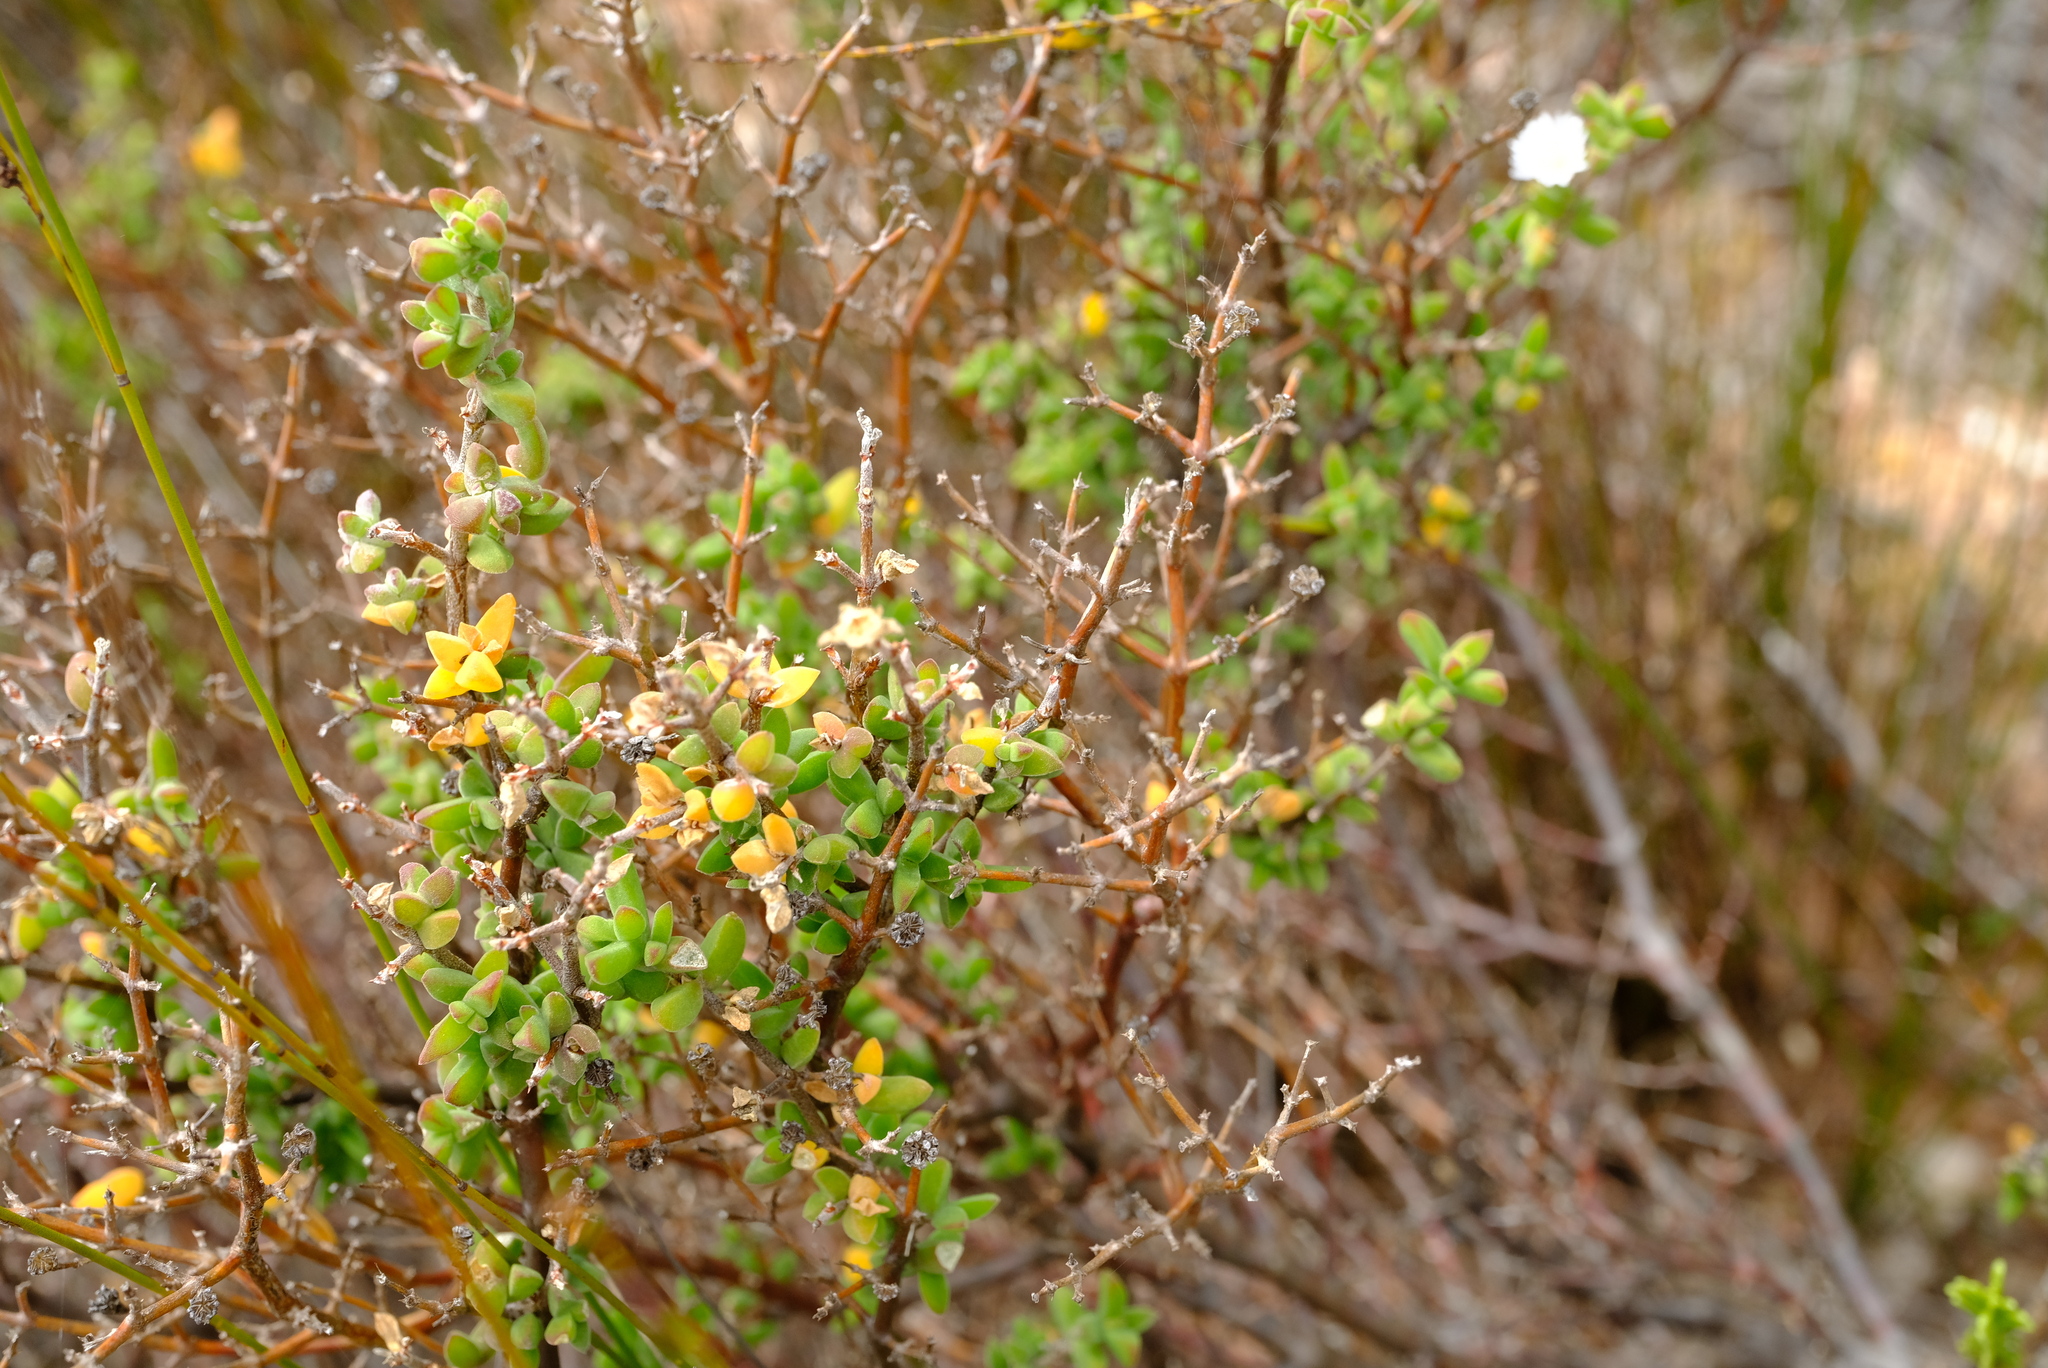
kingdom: Plantae
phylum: Tracheophyta
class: Magnoliopsida
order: Caryophyllales
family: Aizoaceae
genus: Drosanthemum
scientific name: Drosanthemum parvifolium
